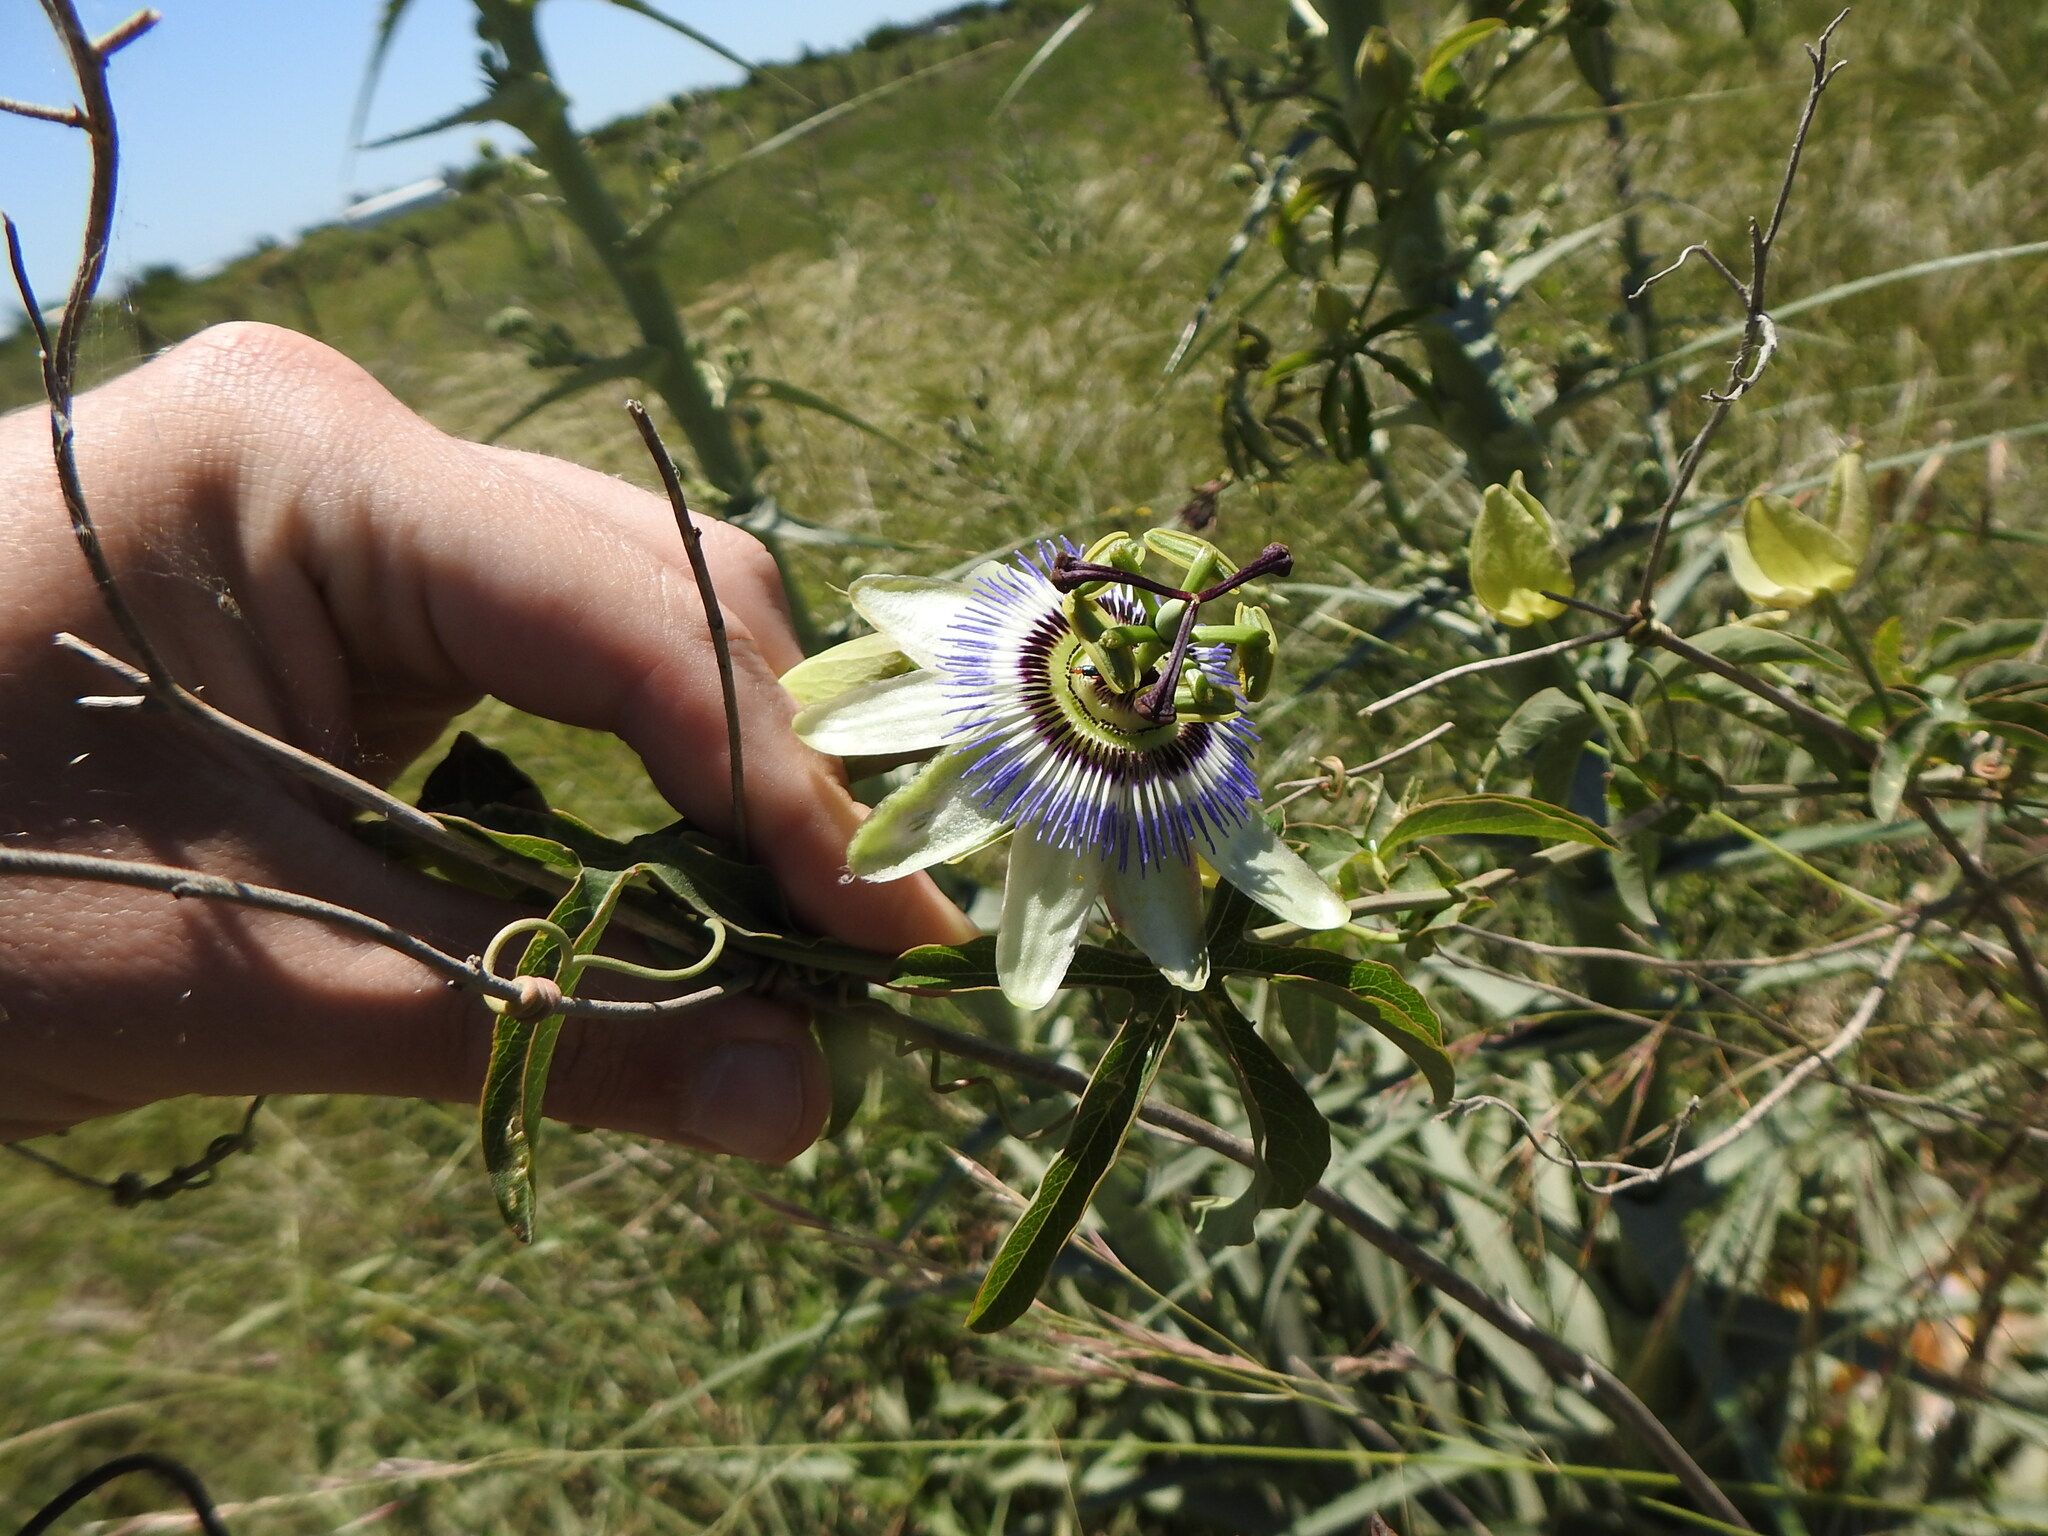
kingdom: Plantae
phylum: Tracheophyta
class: Magnoliopsida
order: Malpighiales
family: Passifloraceae
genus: Passiflora
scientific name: Passiflora caerulea
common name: Blue passionflower
